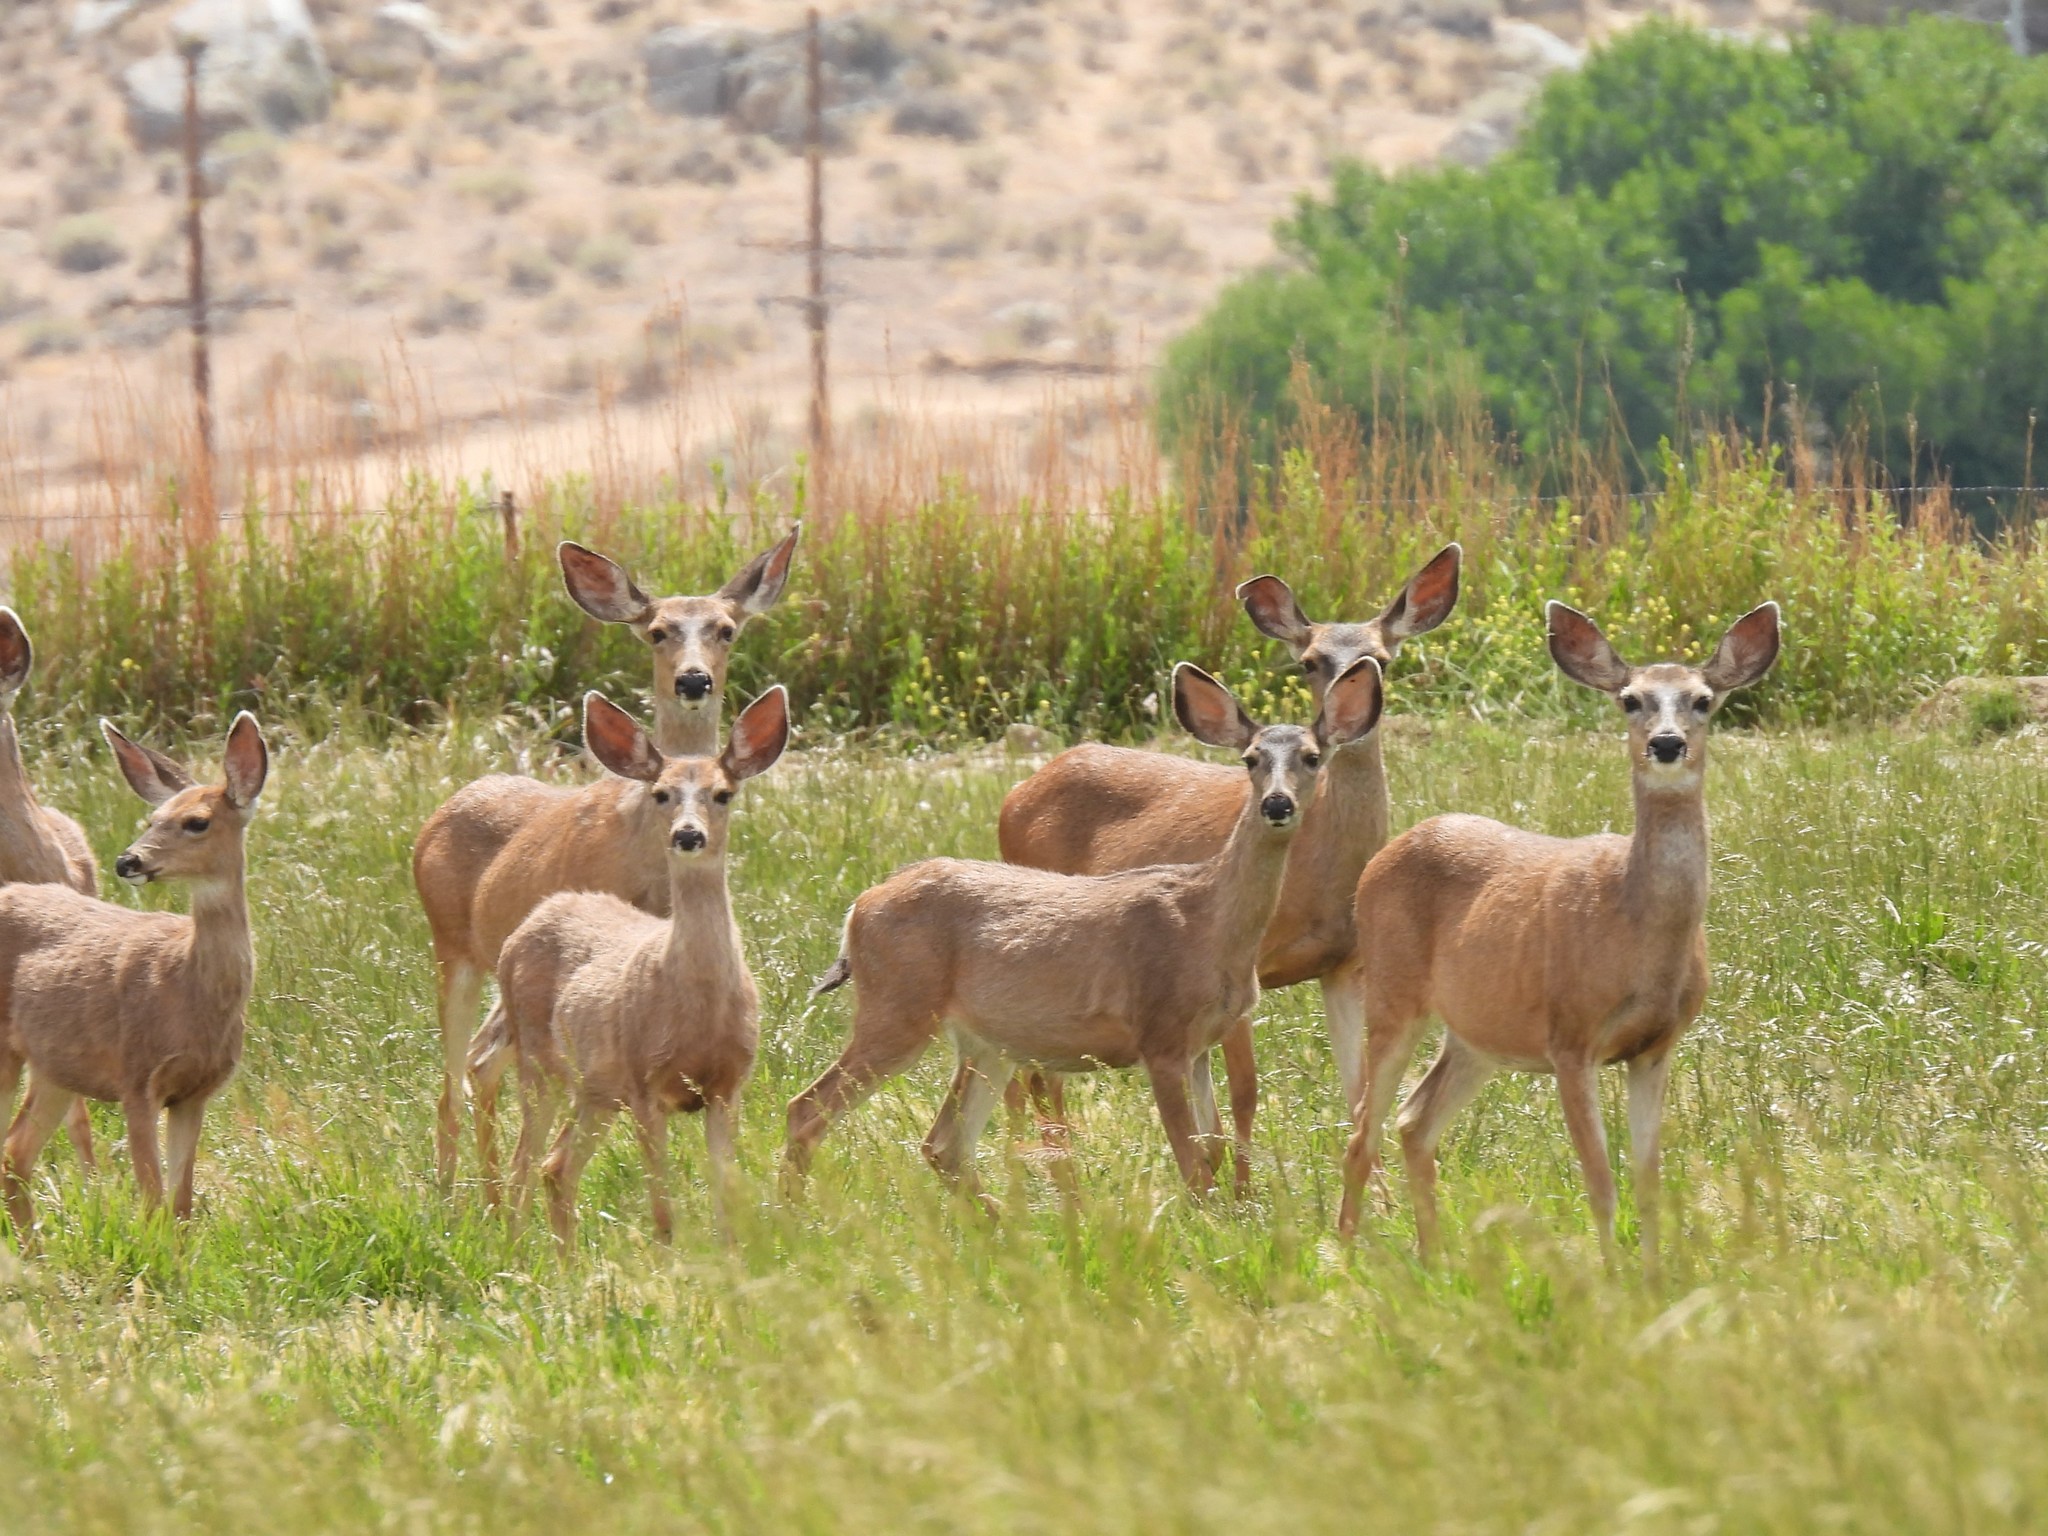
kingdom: Animalia
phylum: Chordata
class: Mammalia
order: Artiodactyla
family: Cervidae
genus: Odocoileus
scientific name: Odocoileus hemionus
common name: Mule deer
